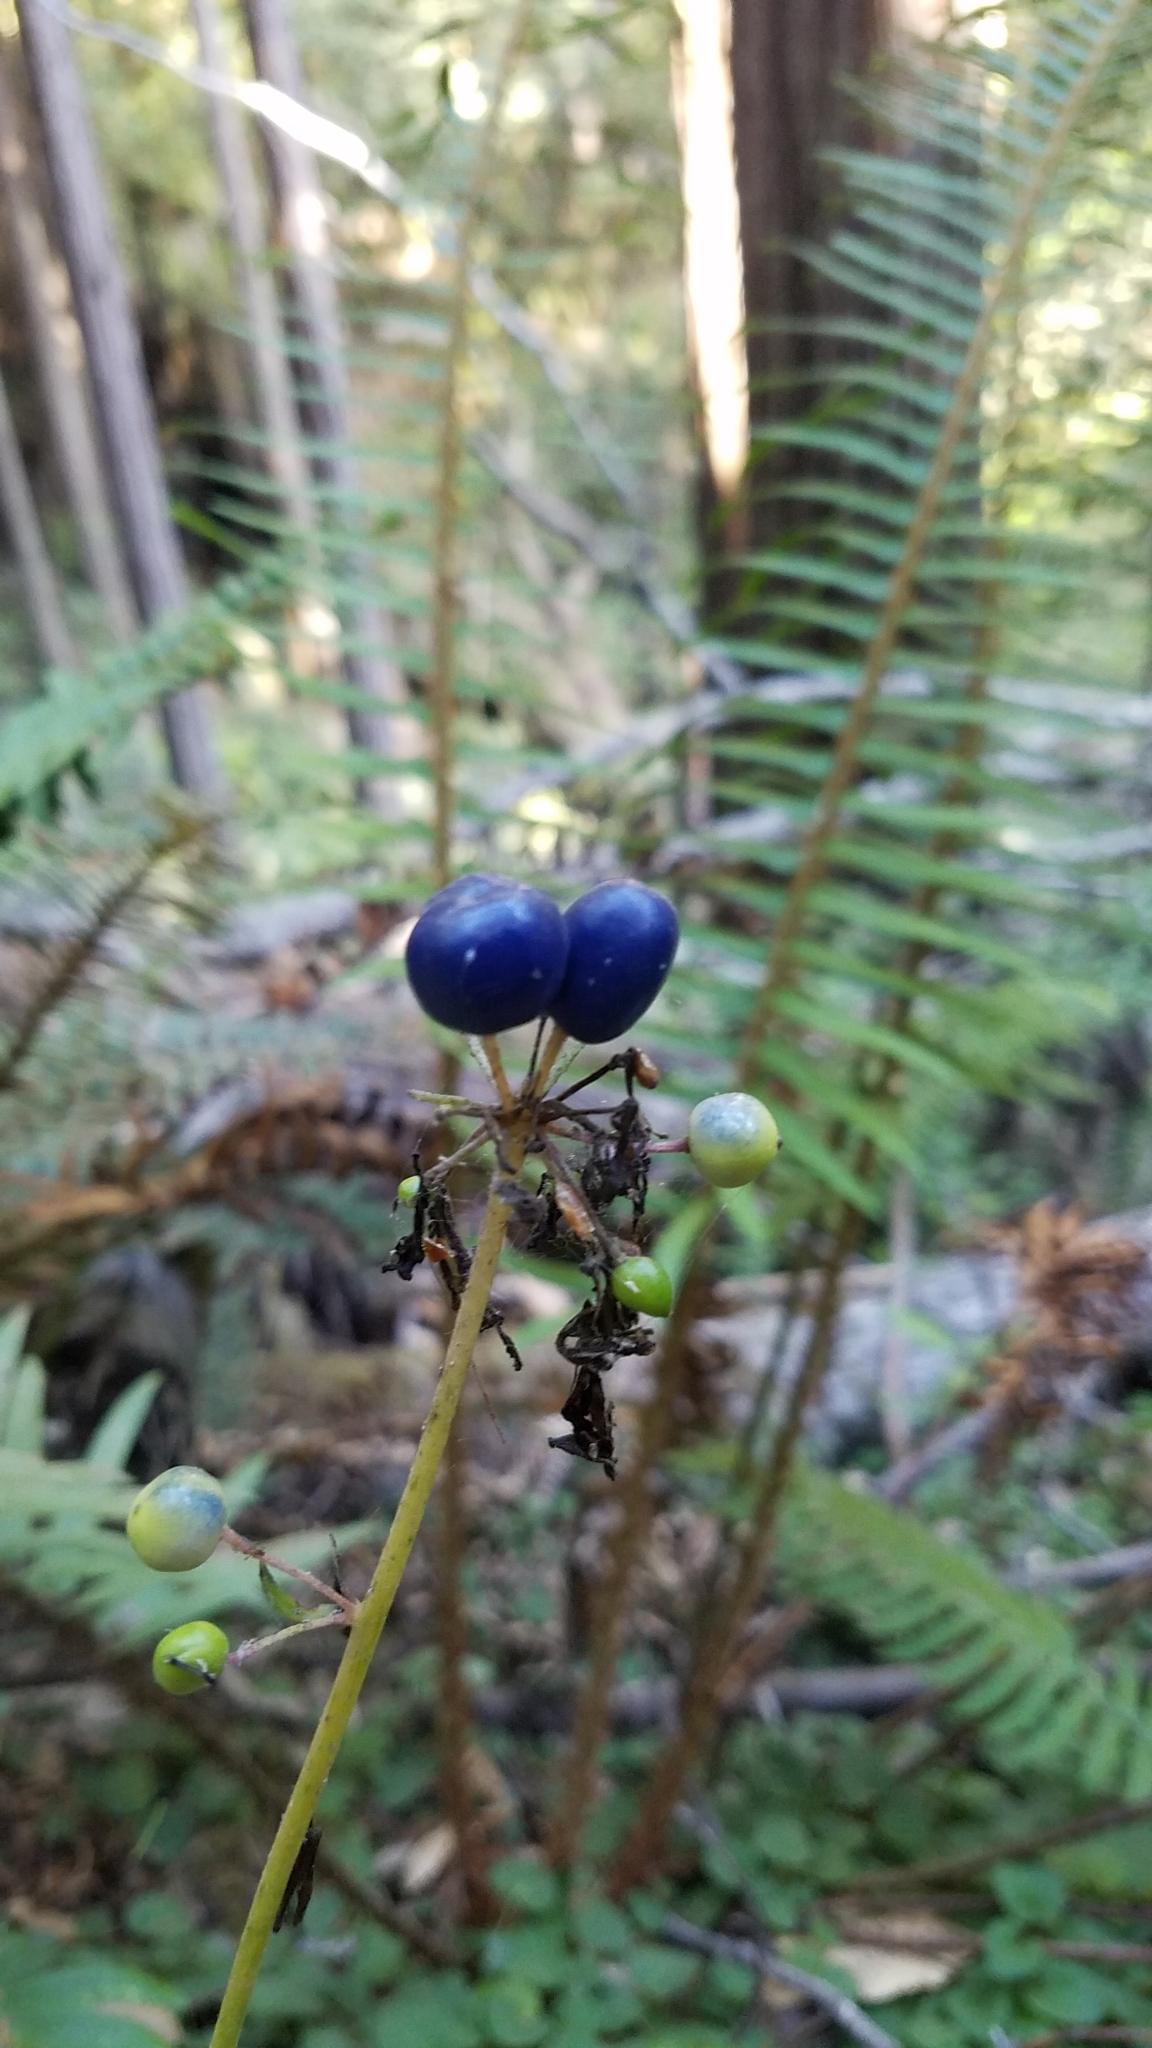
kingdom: Plantae
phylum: Tracheophyta
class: Liliopsida
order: Liliales
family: Liliaceae
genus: Clintonia
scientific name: Clintonia andrewsiana
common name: Red clintonia
